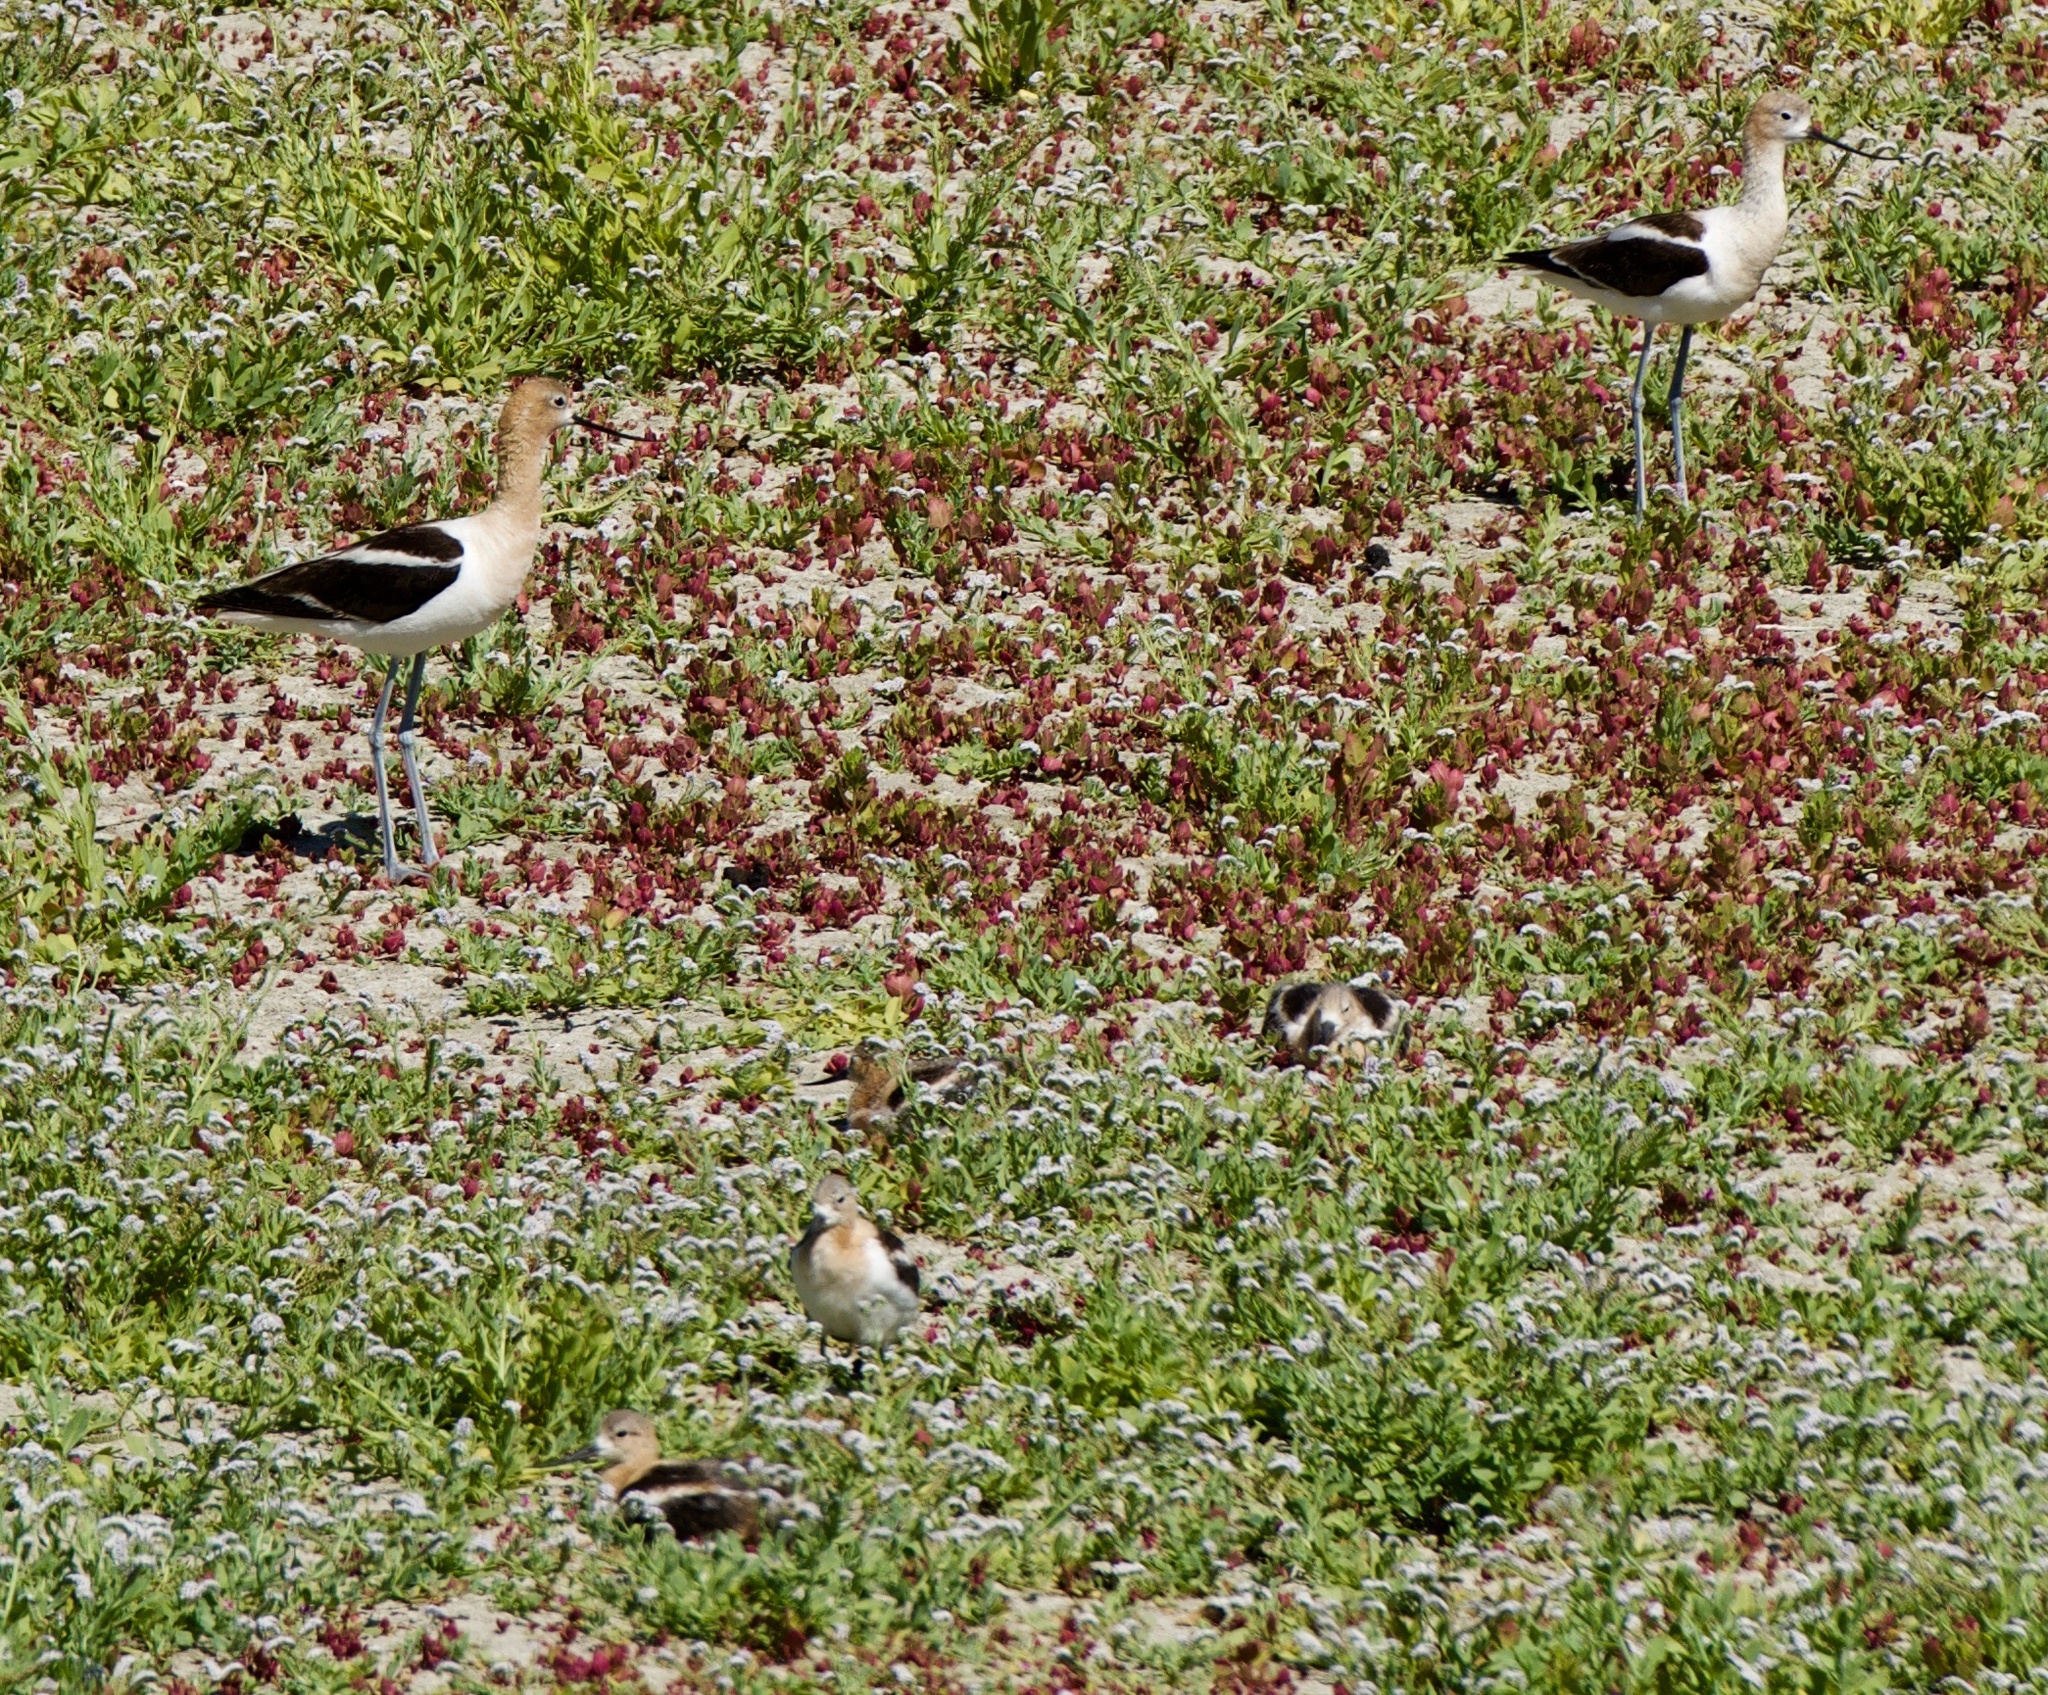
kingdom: Animalia
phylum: Chordata
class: Aves
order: Charadriiformes
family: Recurvirostridae
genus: Recurvirostra
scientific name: Recurvirostra americana
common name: American avocet
